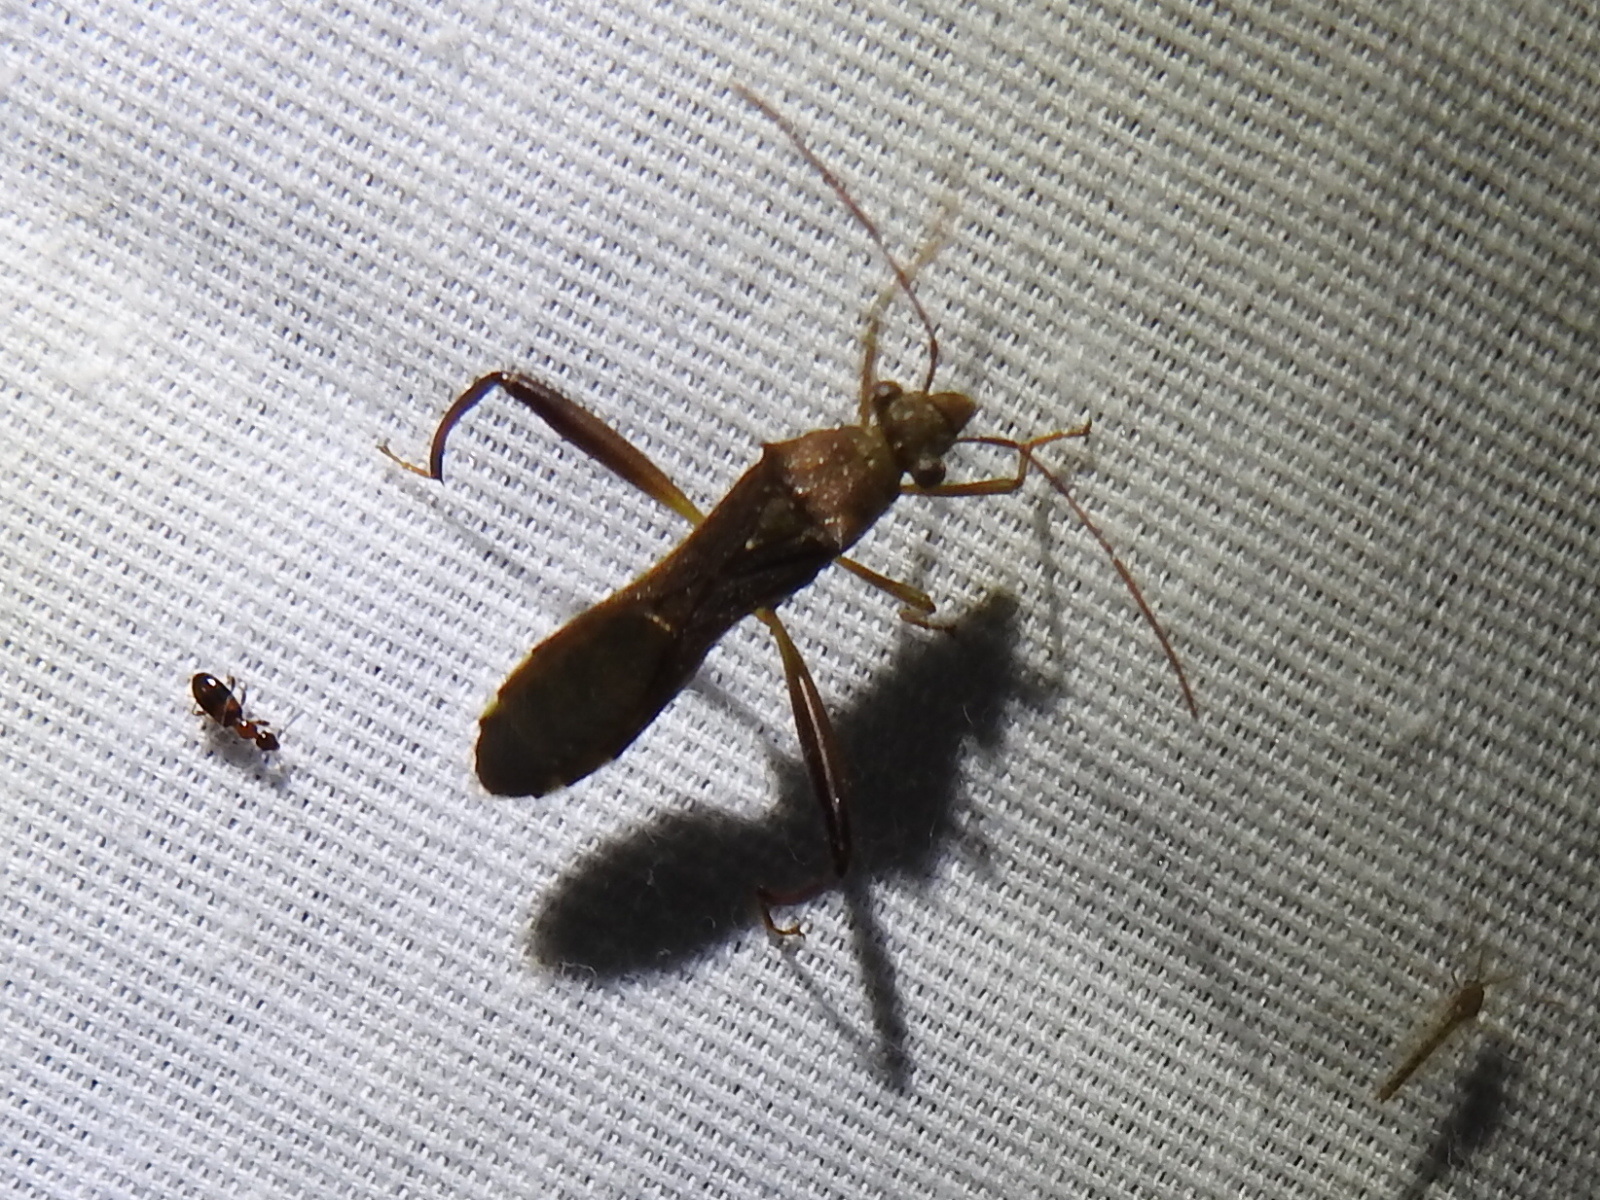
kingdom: Animalia
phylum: Arthropoda
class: Insecta
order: Hemiptera
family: Alydidae
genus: Hyalymenus
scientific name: Hyalymenus tarsatus
